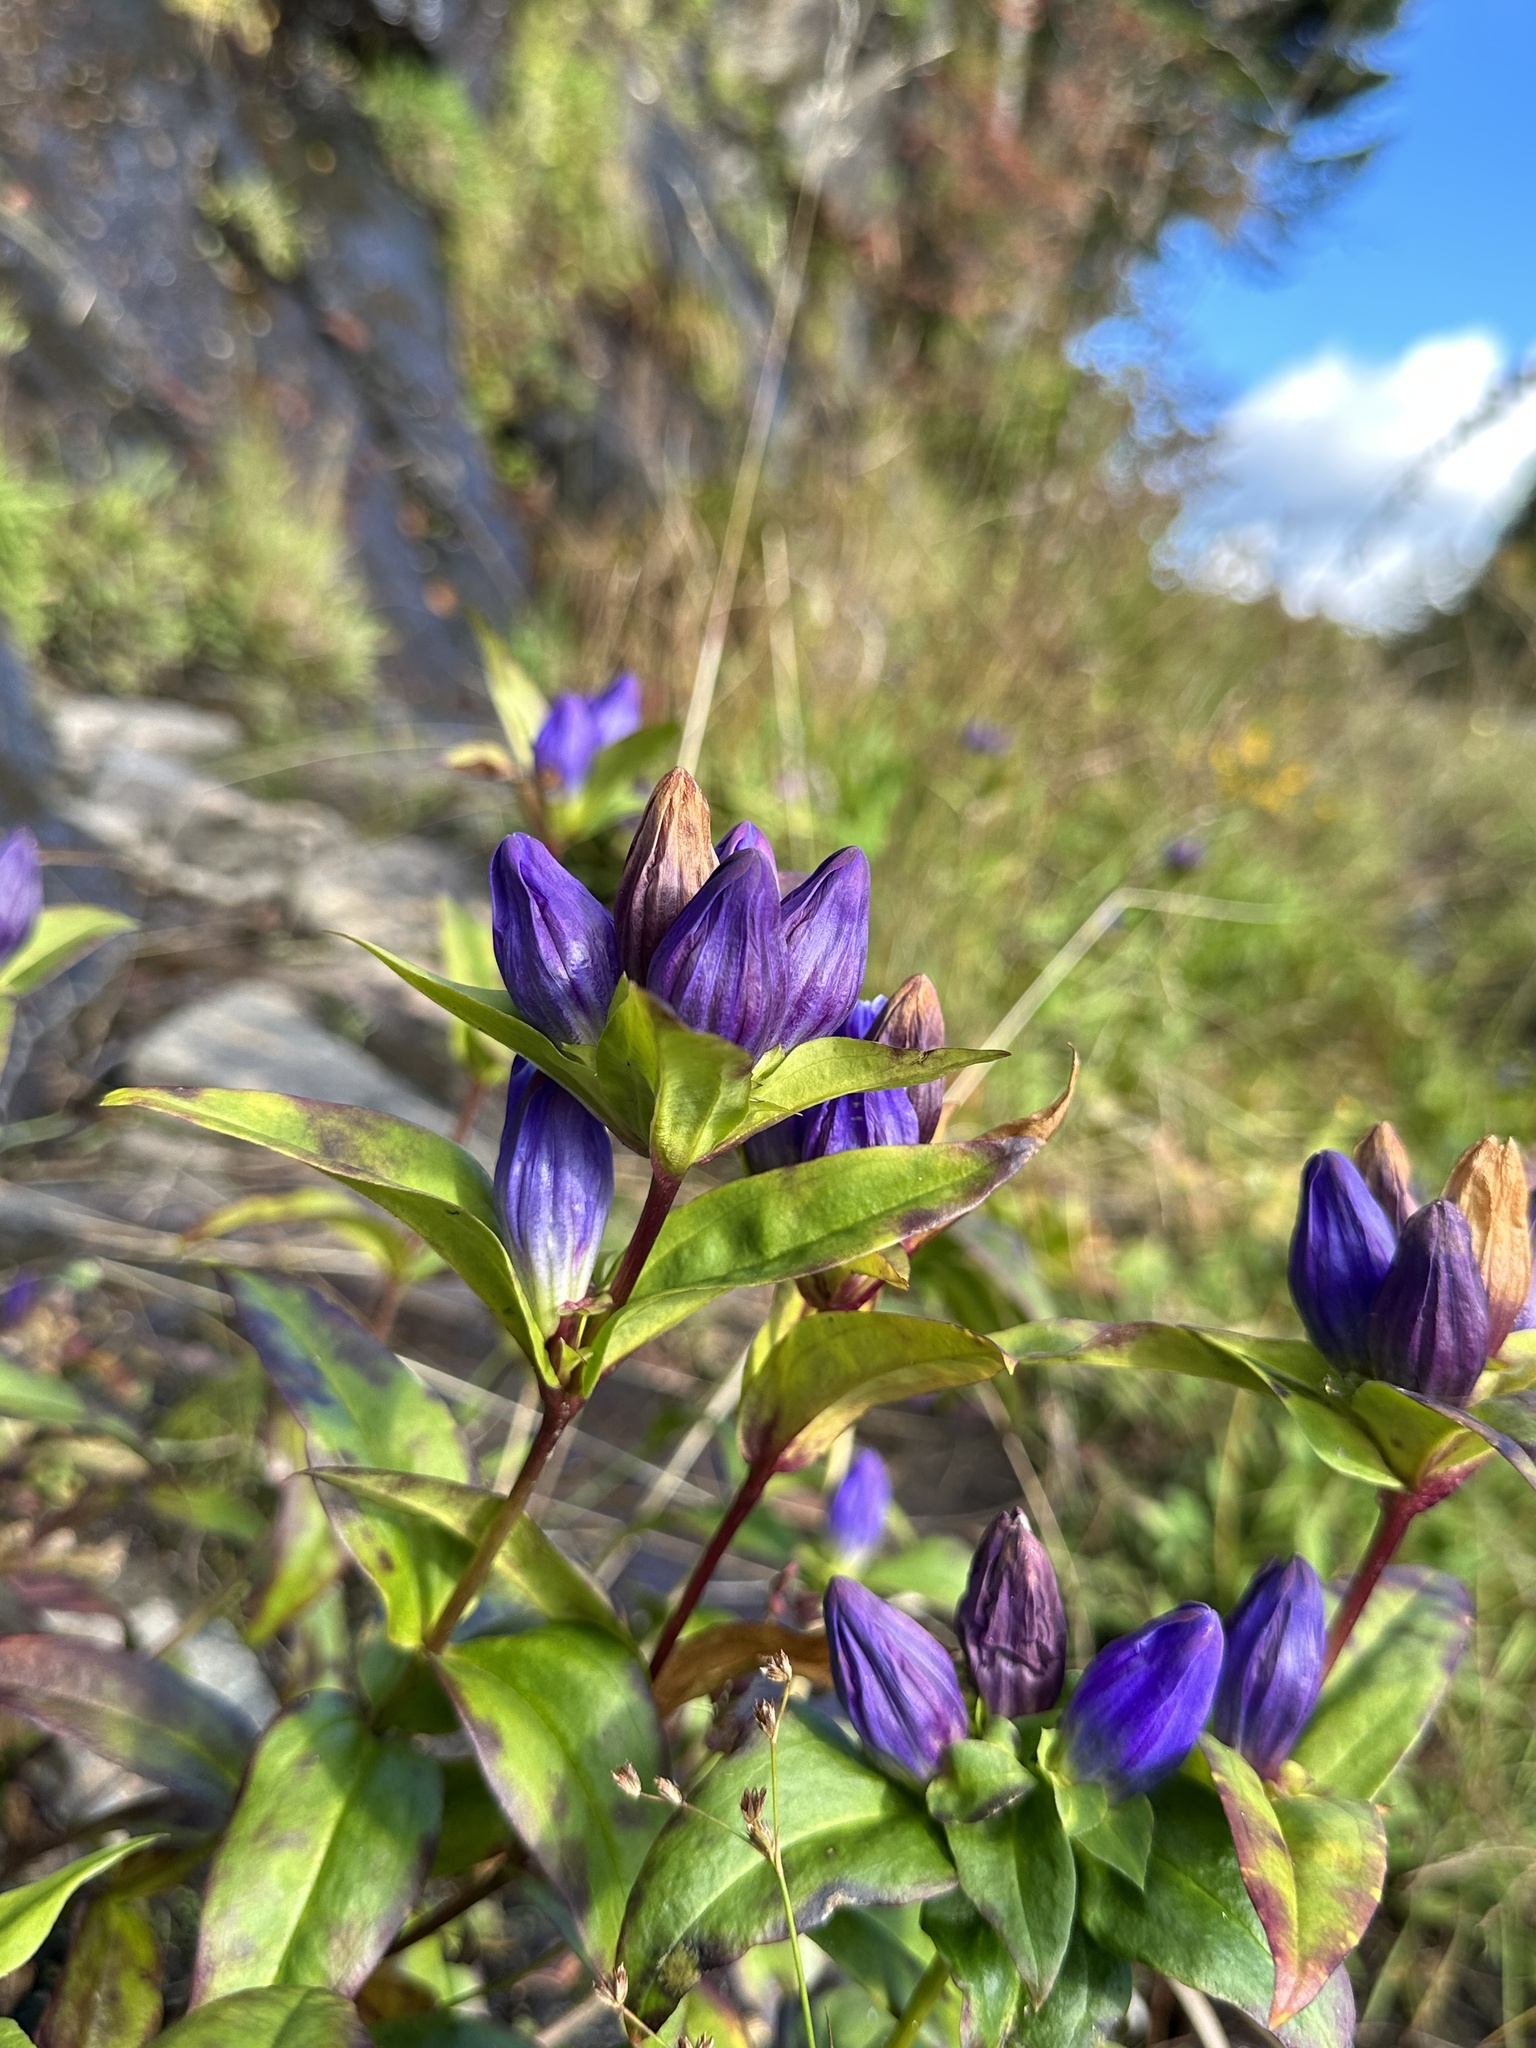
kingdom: Plantae
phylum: Tracheophyta
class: Magnoliopsida
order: Gentianales
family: Gentianaceae
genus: Gentiana
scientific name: Gentiana latidens
